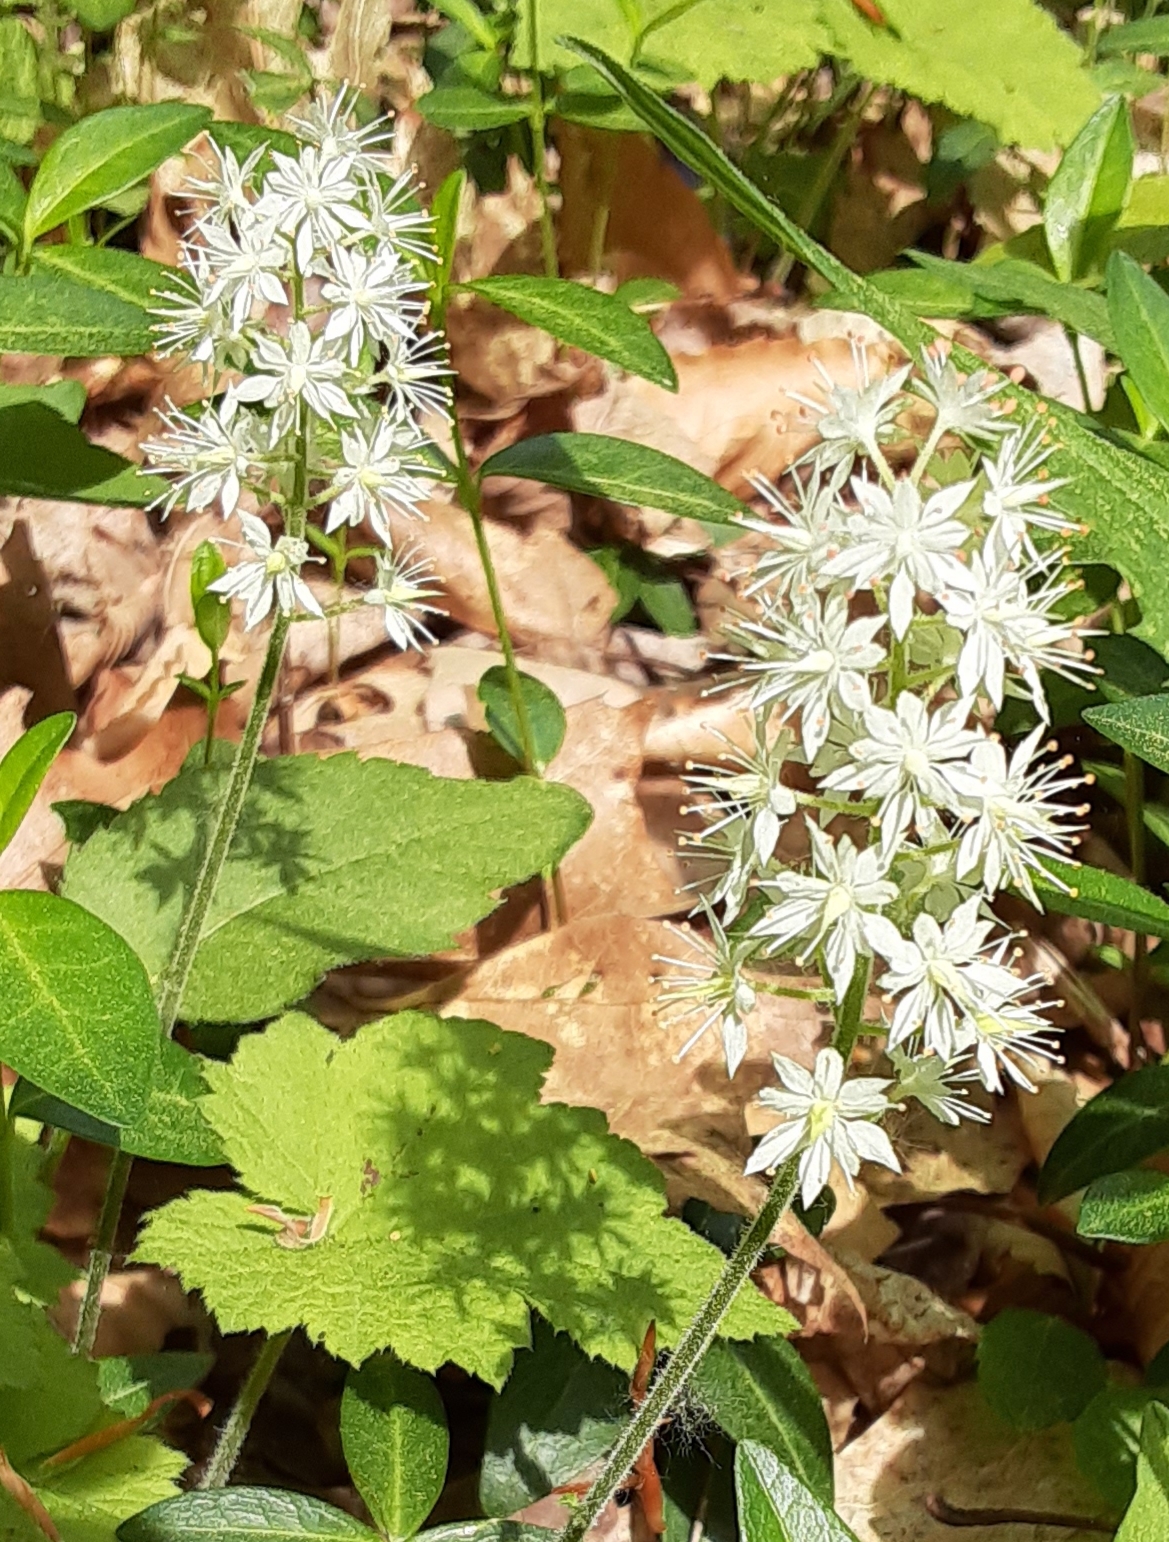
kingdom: Plantae
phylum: Tracheophyta
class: Magnoliopsida
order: Saxifragales
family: Saxifragaceae
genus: Tiarella
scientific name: Tiarella stolonifera
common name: Stoloniferous foamflower
